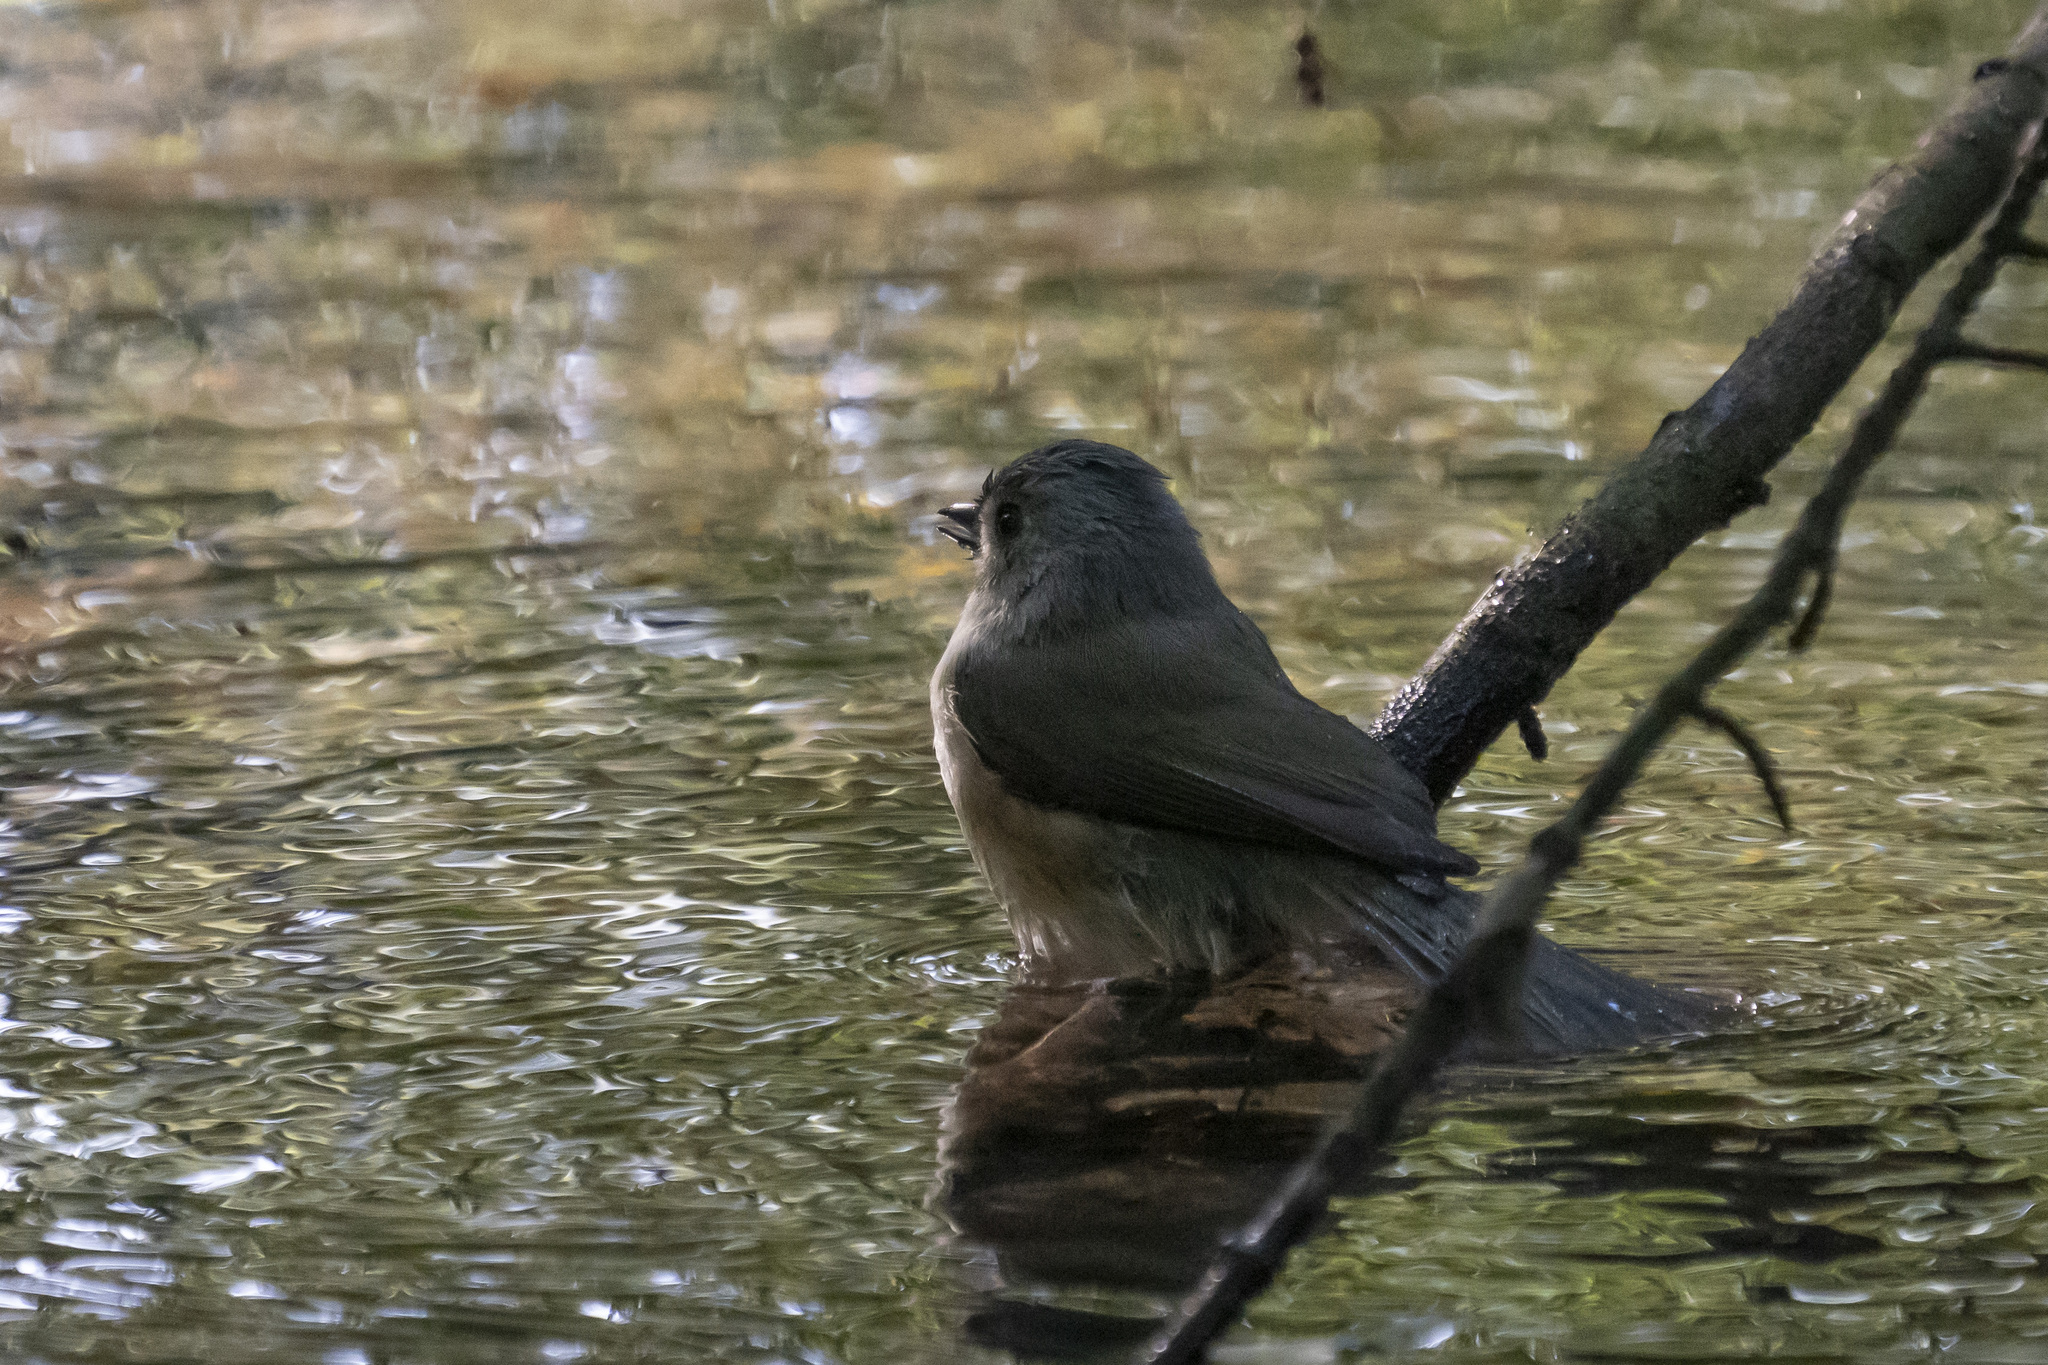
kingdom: Animalia
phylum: Chordata
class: Aves
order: Passeriformes
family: Paridae
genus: Baeolophus
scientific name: Baeolophus bicolor
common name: Tufted titmouse
